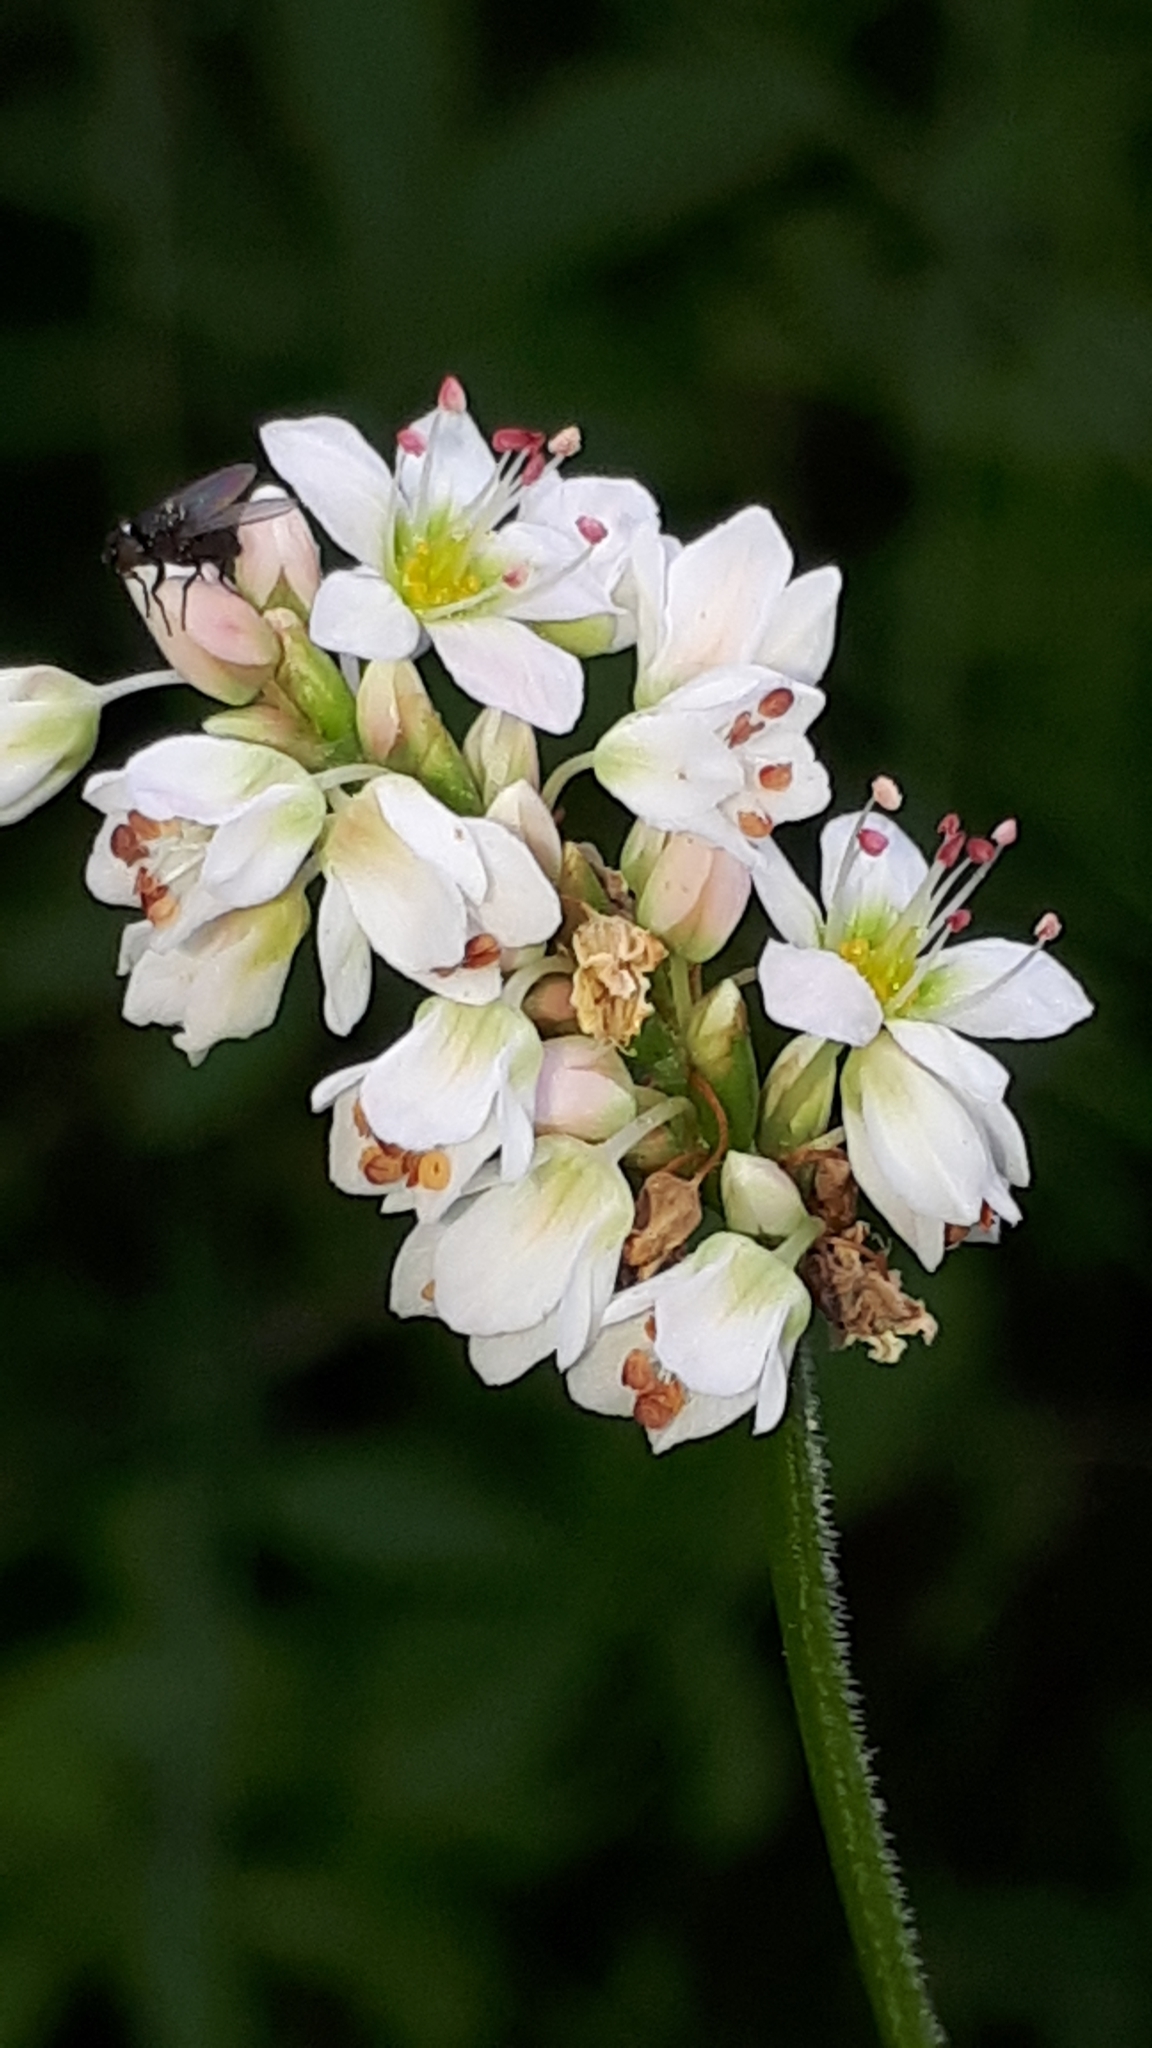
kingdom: Plantae
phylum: Tracheophyta
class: Magnoliopsida
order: Caryophyllales
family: Polygonaceae
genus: Fagopyrum
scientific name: Fagopyrum esculentum
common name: Buckwheat
